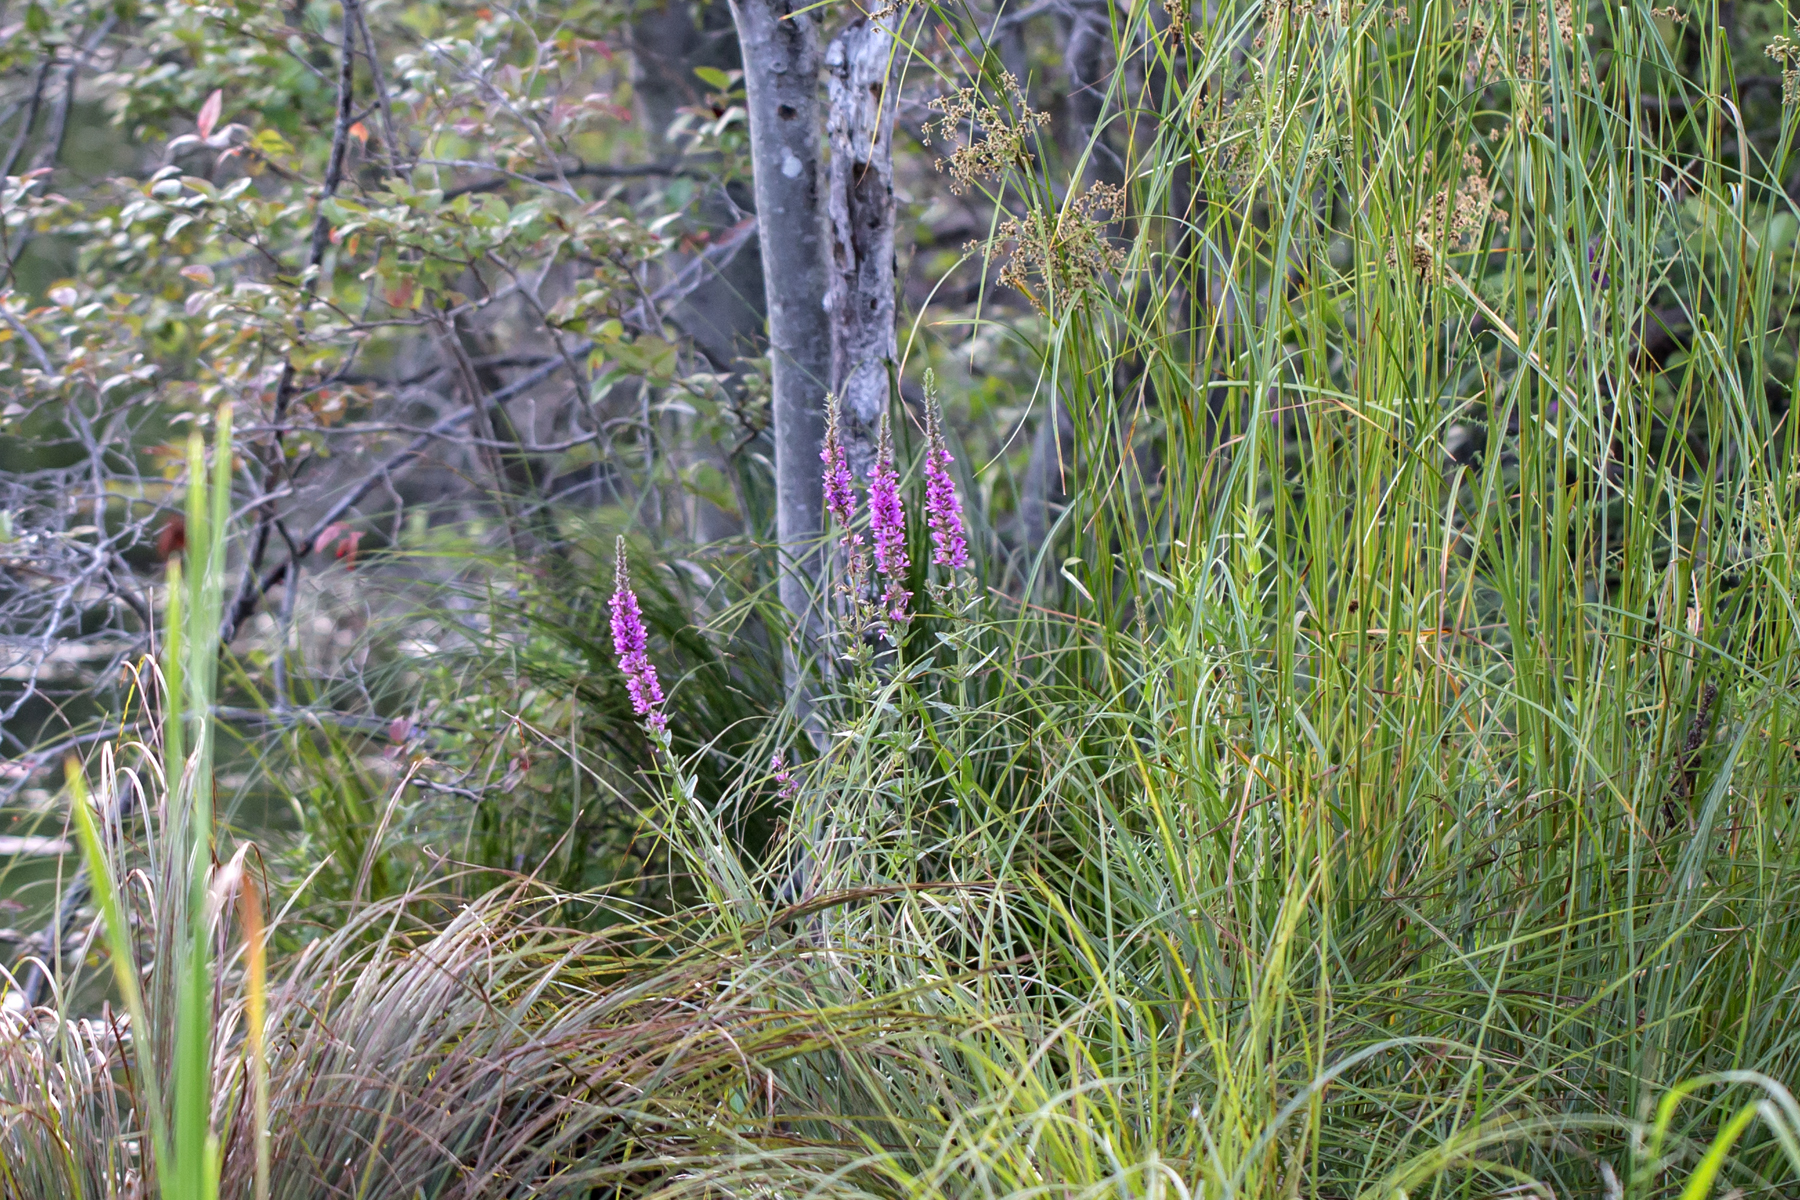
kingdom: Plantae
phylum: Tracheophyta
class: Magnoliopsida
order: Myrtales
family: Lythraceae
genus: Lythrum
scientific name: Lythrum salicaria
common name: Purple loosestrife
